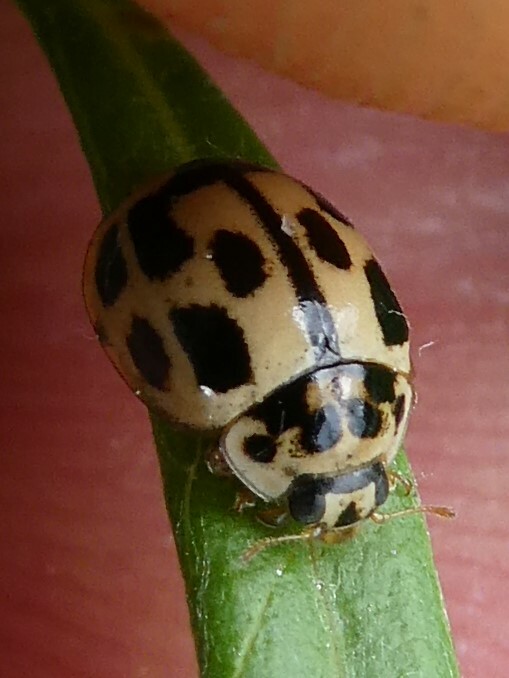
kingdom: Animalia
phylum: Arthropoda
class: Insecta
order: Coleoptera
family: Coccinellidae
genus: Propylaea
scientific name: Propylaea quatuordecimpunctata
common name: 14-spotted ladybird beetle
